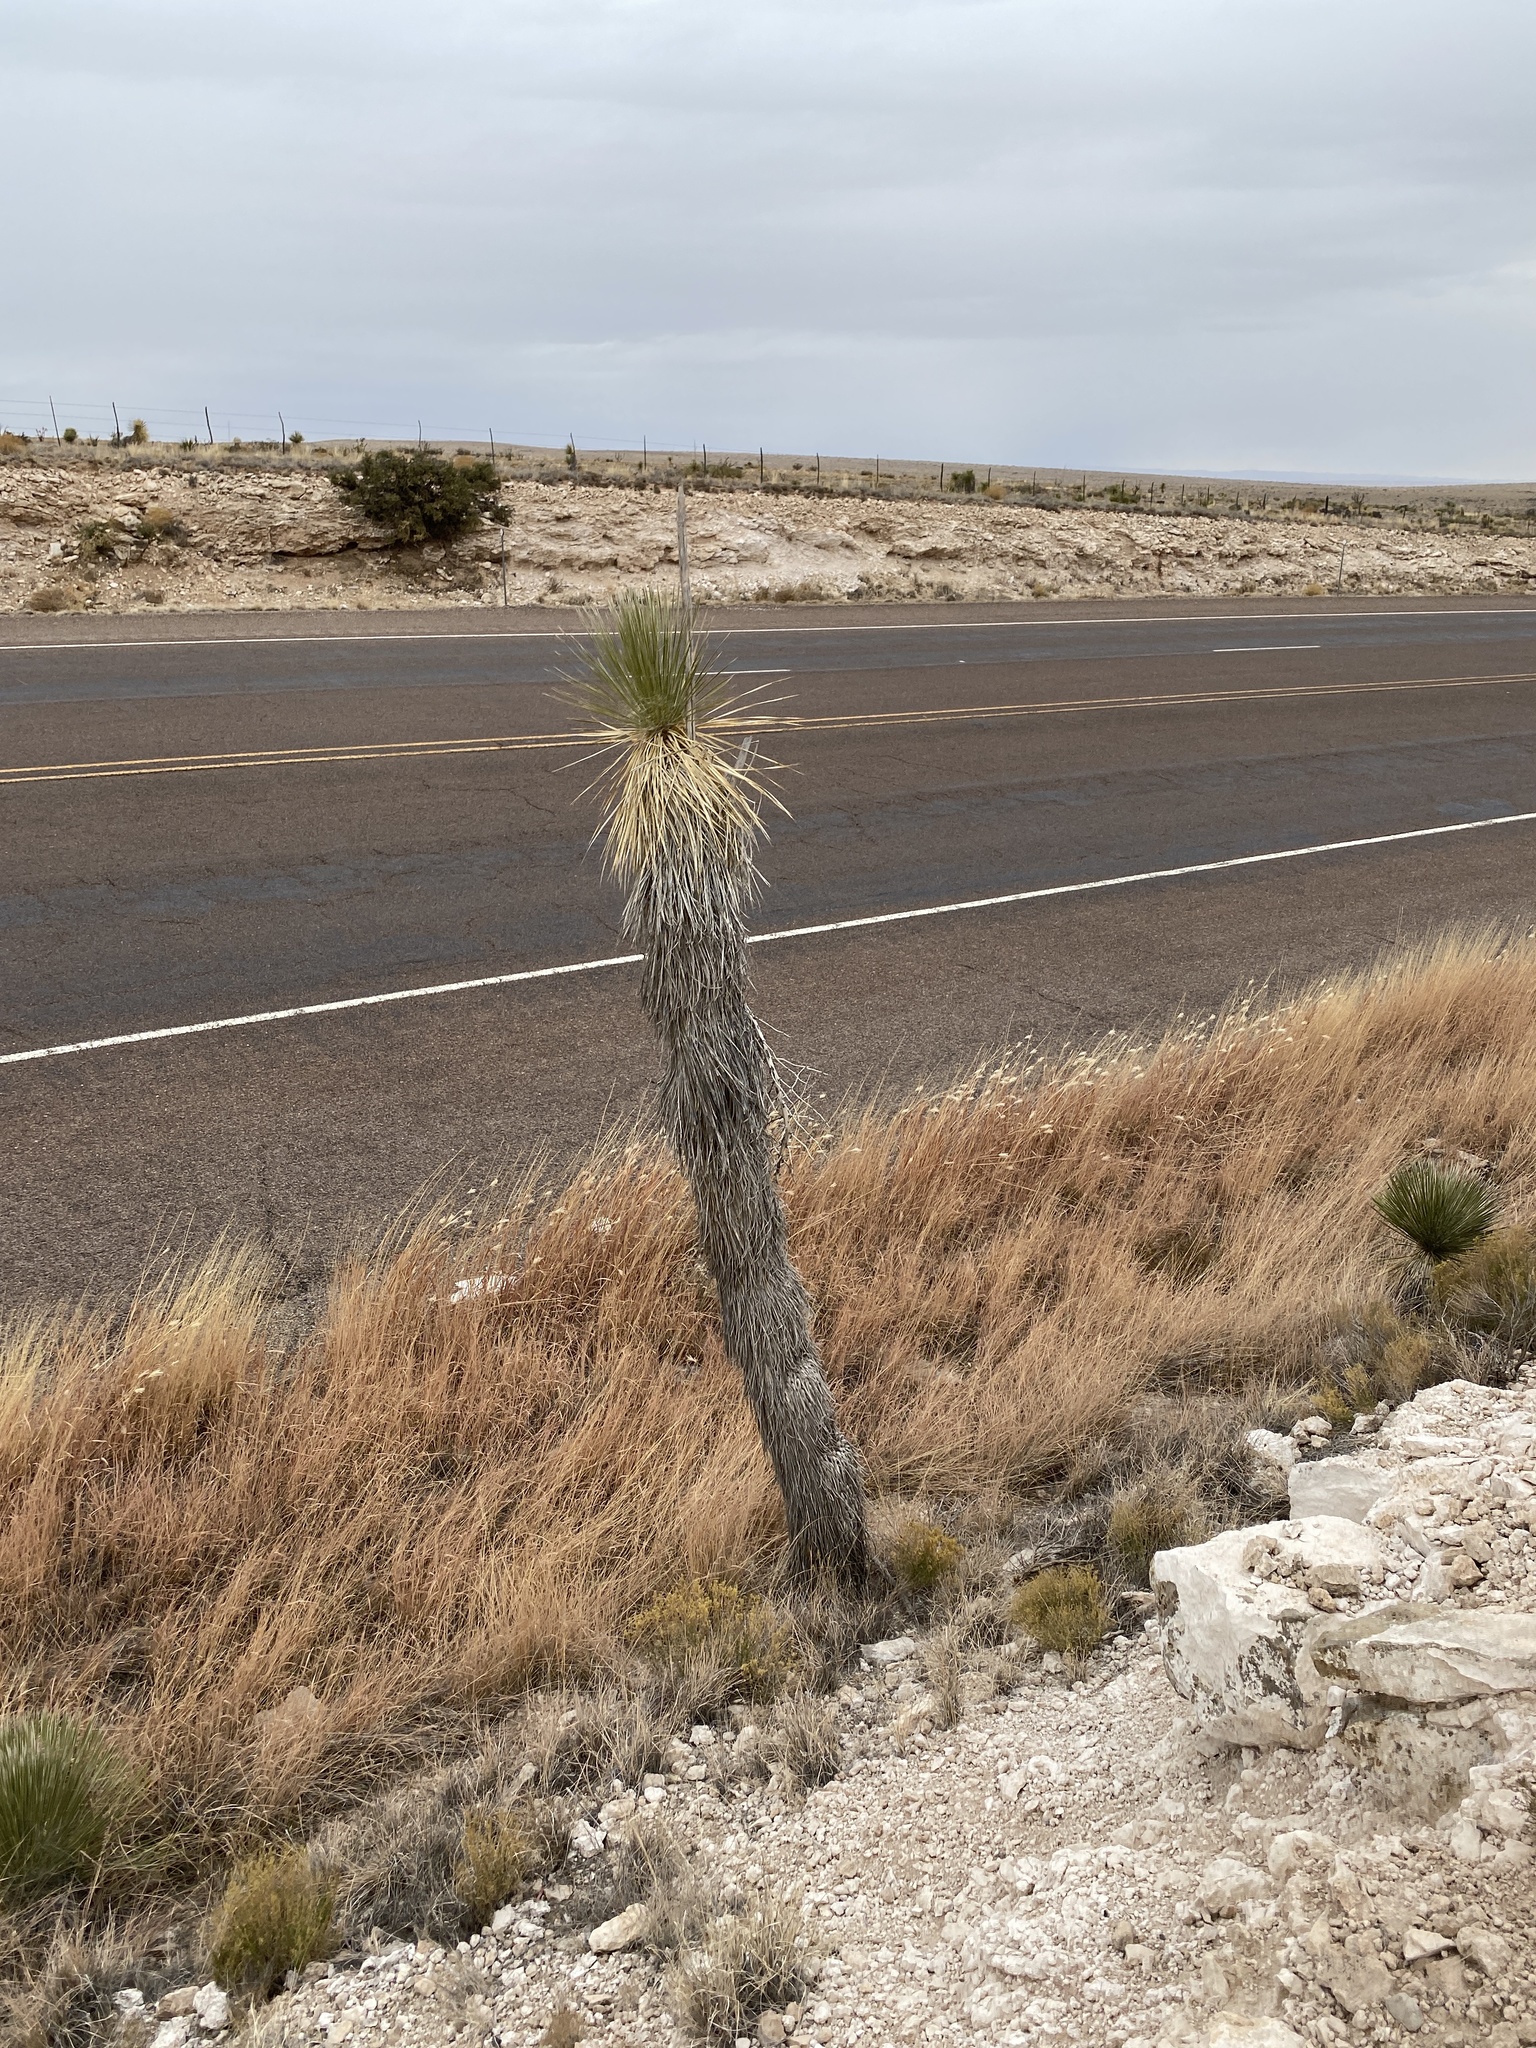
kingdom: Plantae
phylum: Tracheophyta
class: Liliopsida
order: Asparagales
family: Asparagaceae
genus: Yucca
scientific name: Yucca elata
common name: Palmella
